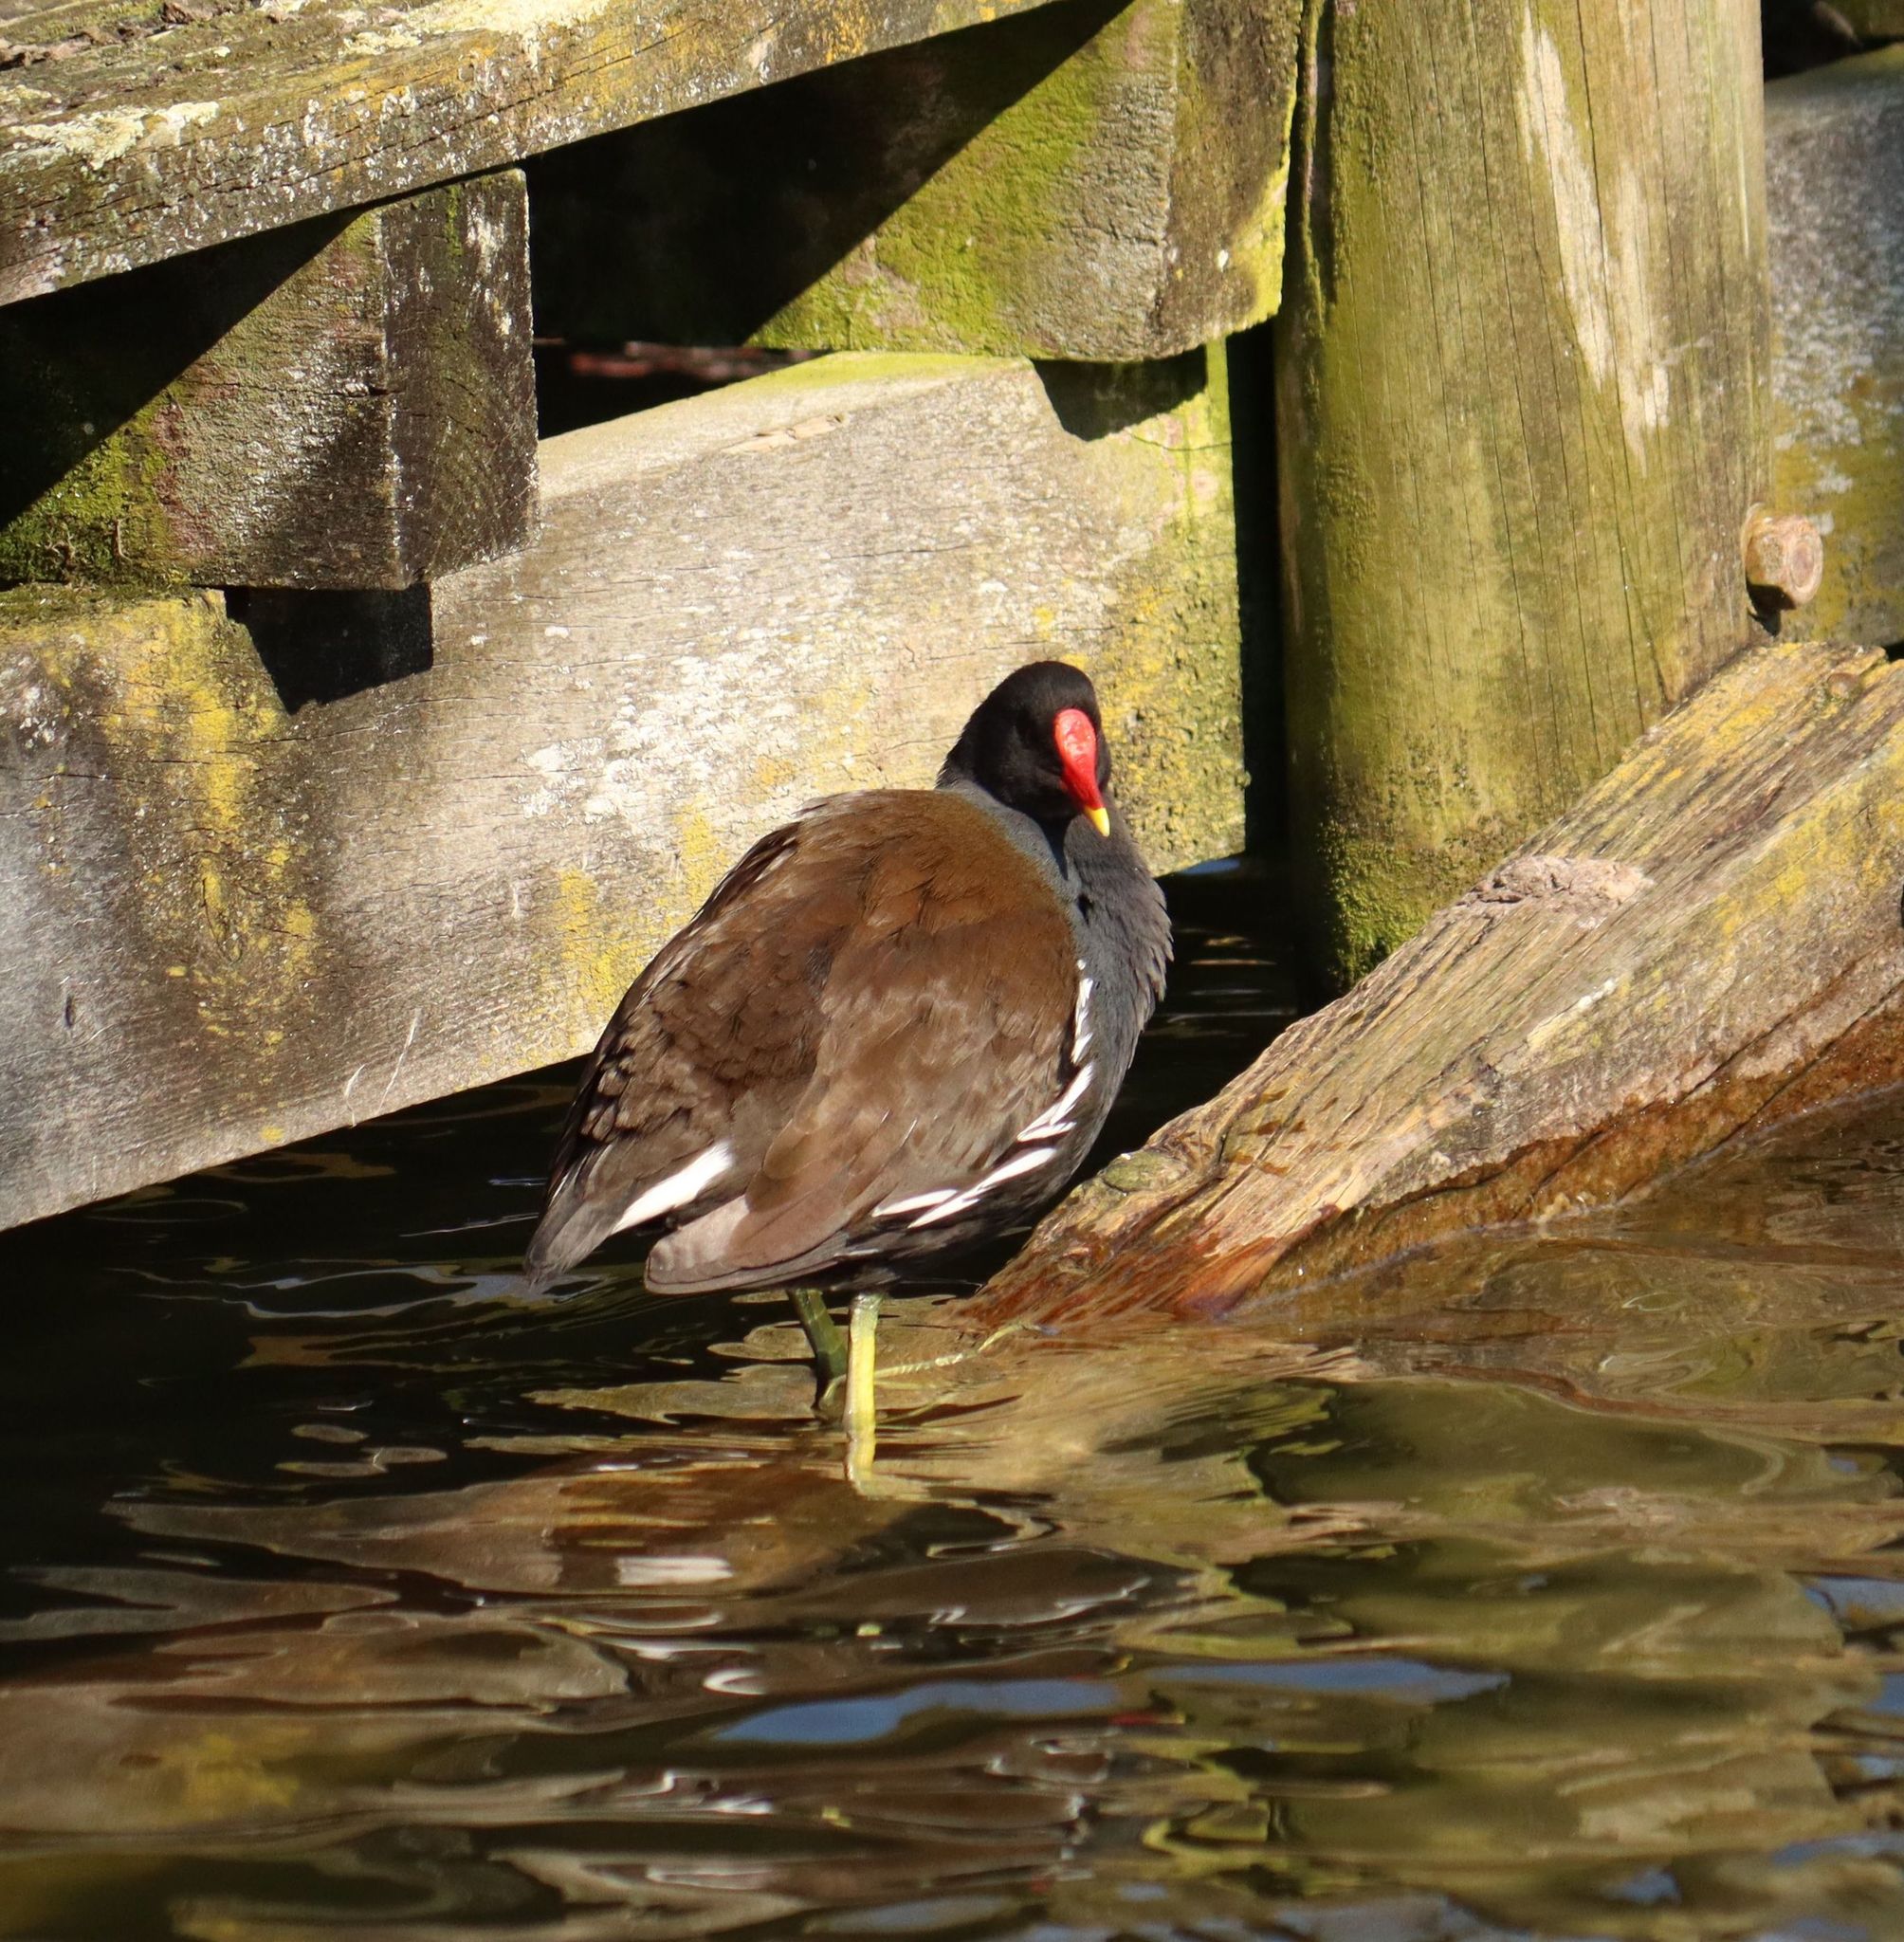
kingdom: Animalia
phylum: Chordata
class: Aves
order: Gruiformes
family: Rallidae
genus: Gallinula
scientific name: Gallinula chloropus
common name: Common moorhen
